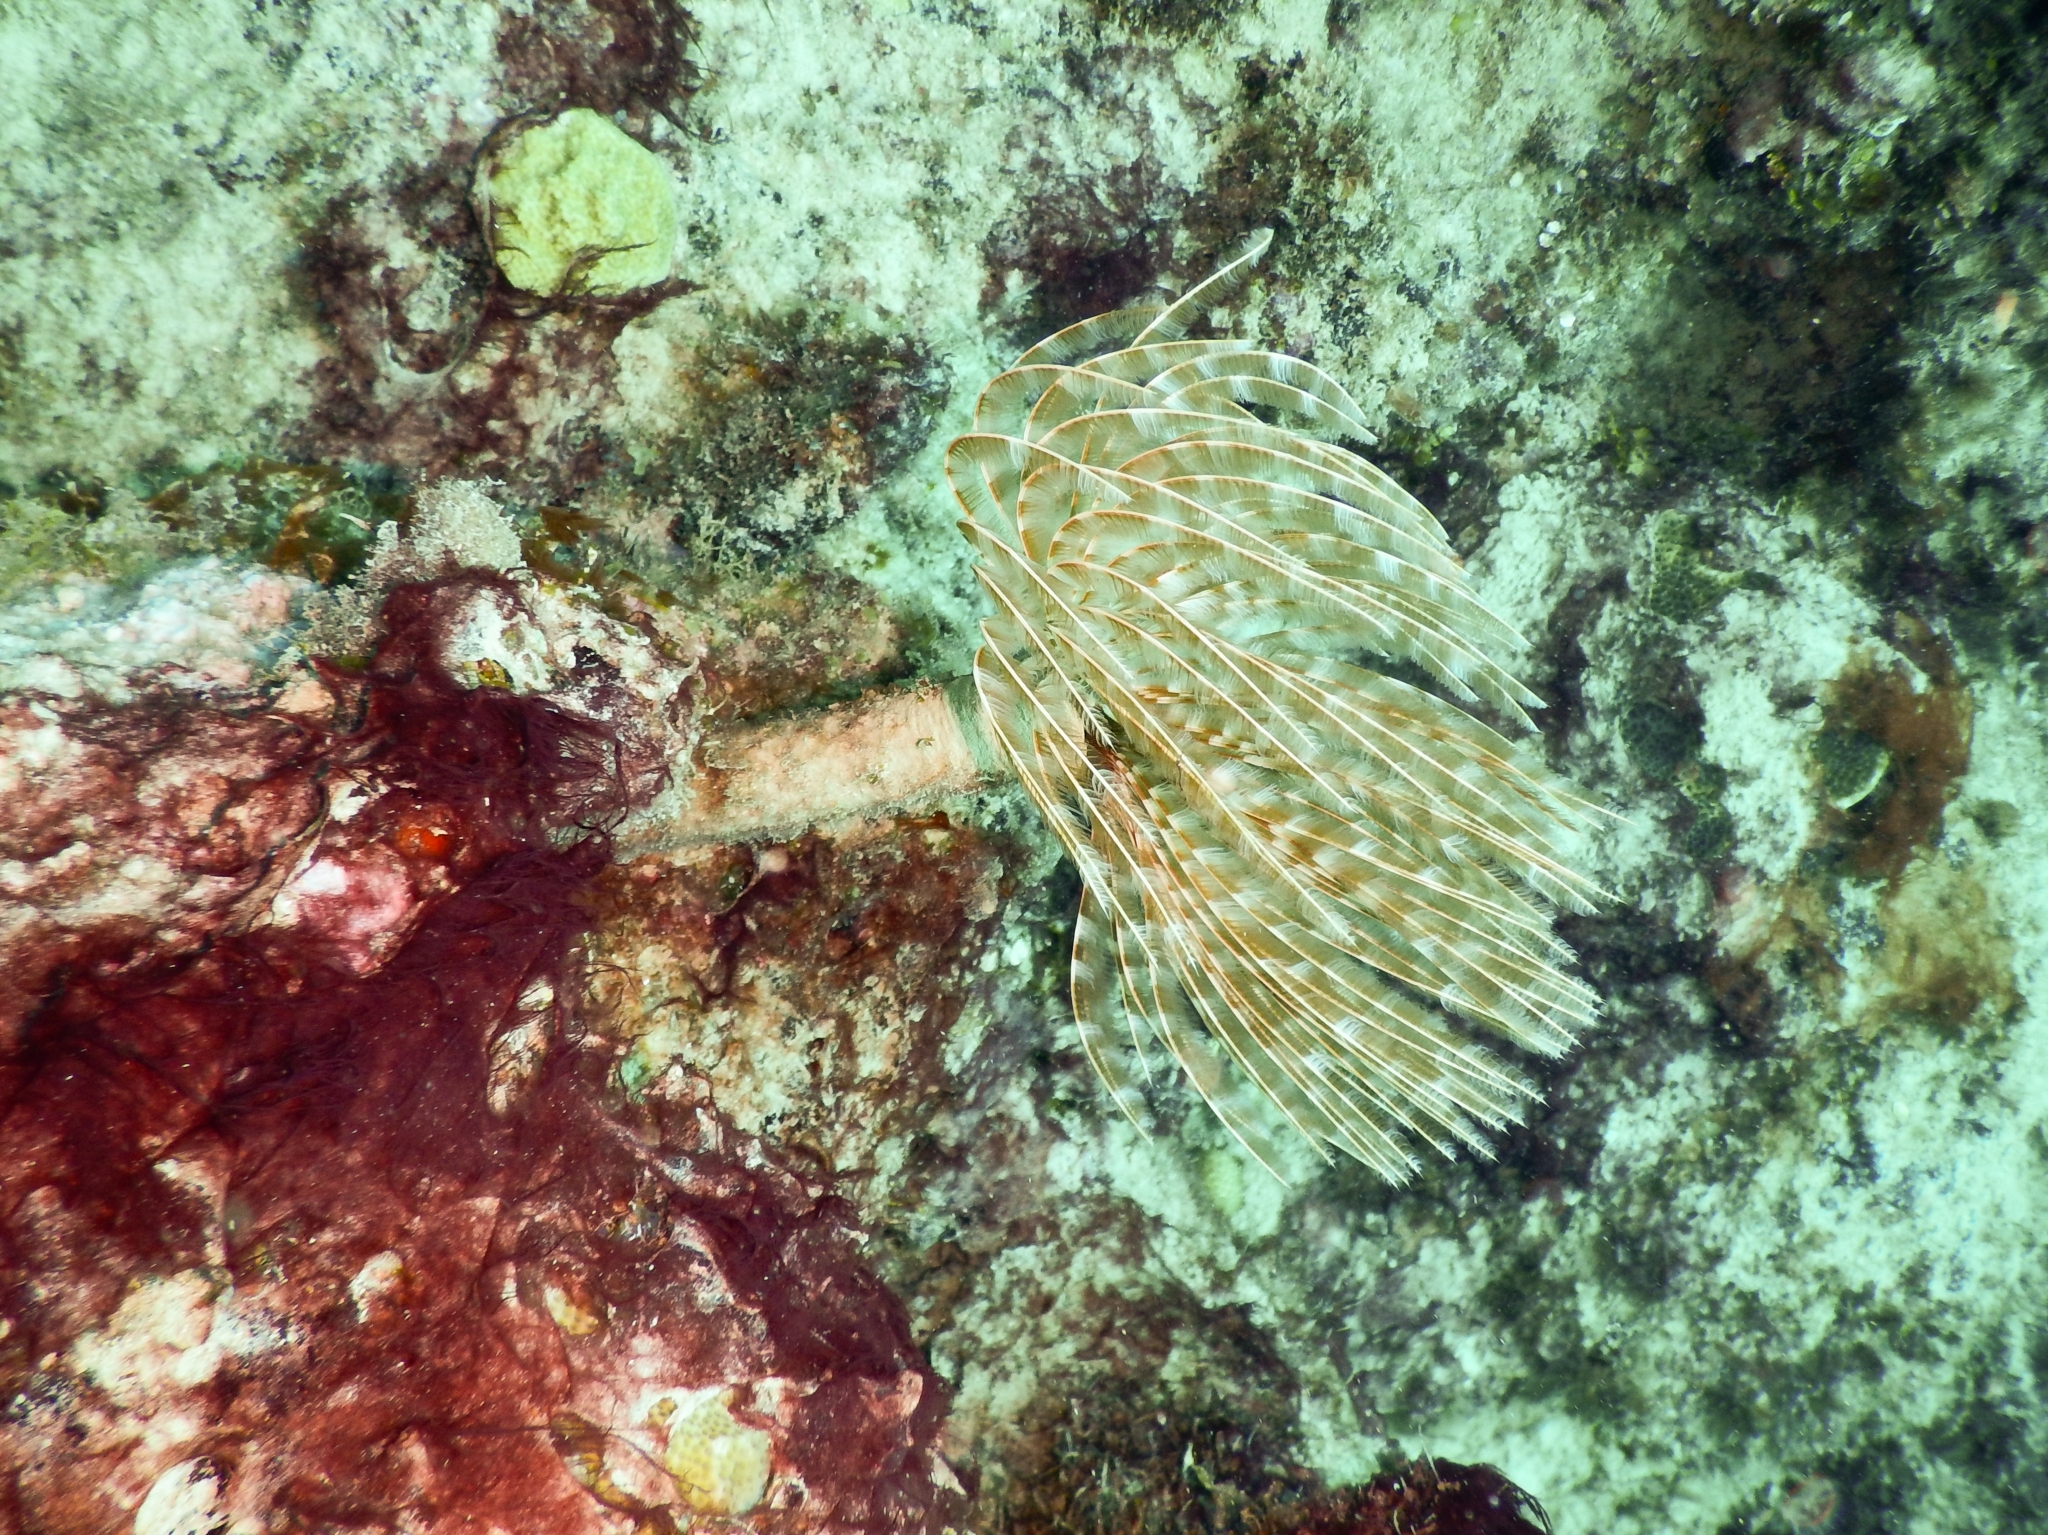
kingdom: Animalia
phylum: Annelida
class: Polychaeta
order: Sabellida
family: Sabellidae
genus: Sabellastarte
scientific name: Sabellastarte magnifica
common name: Giant feather-duster worm
